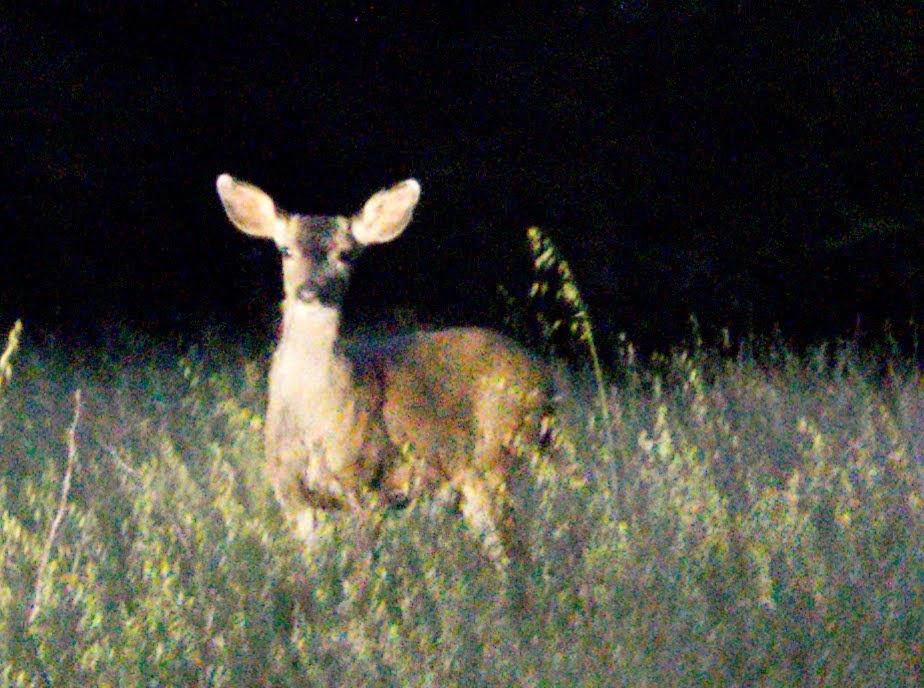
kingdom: Animalia
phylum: Chordata
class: Mammalia
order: Artiodactyla
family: Cervidae
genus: Odocoileus
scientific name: Odocoileus hemionus
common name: Mule deer
